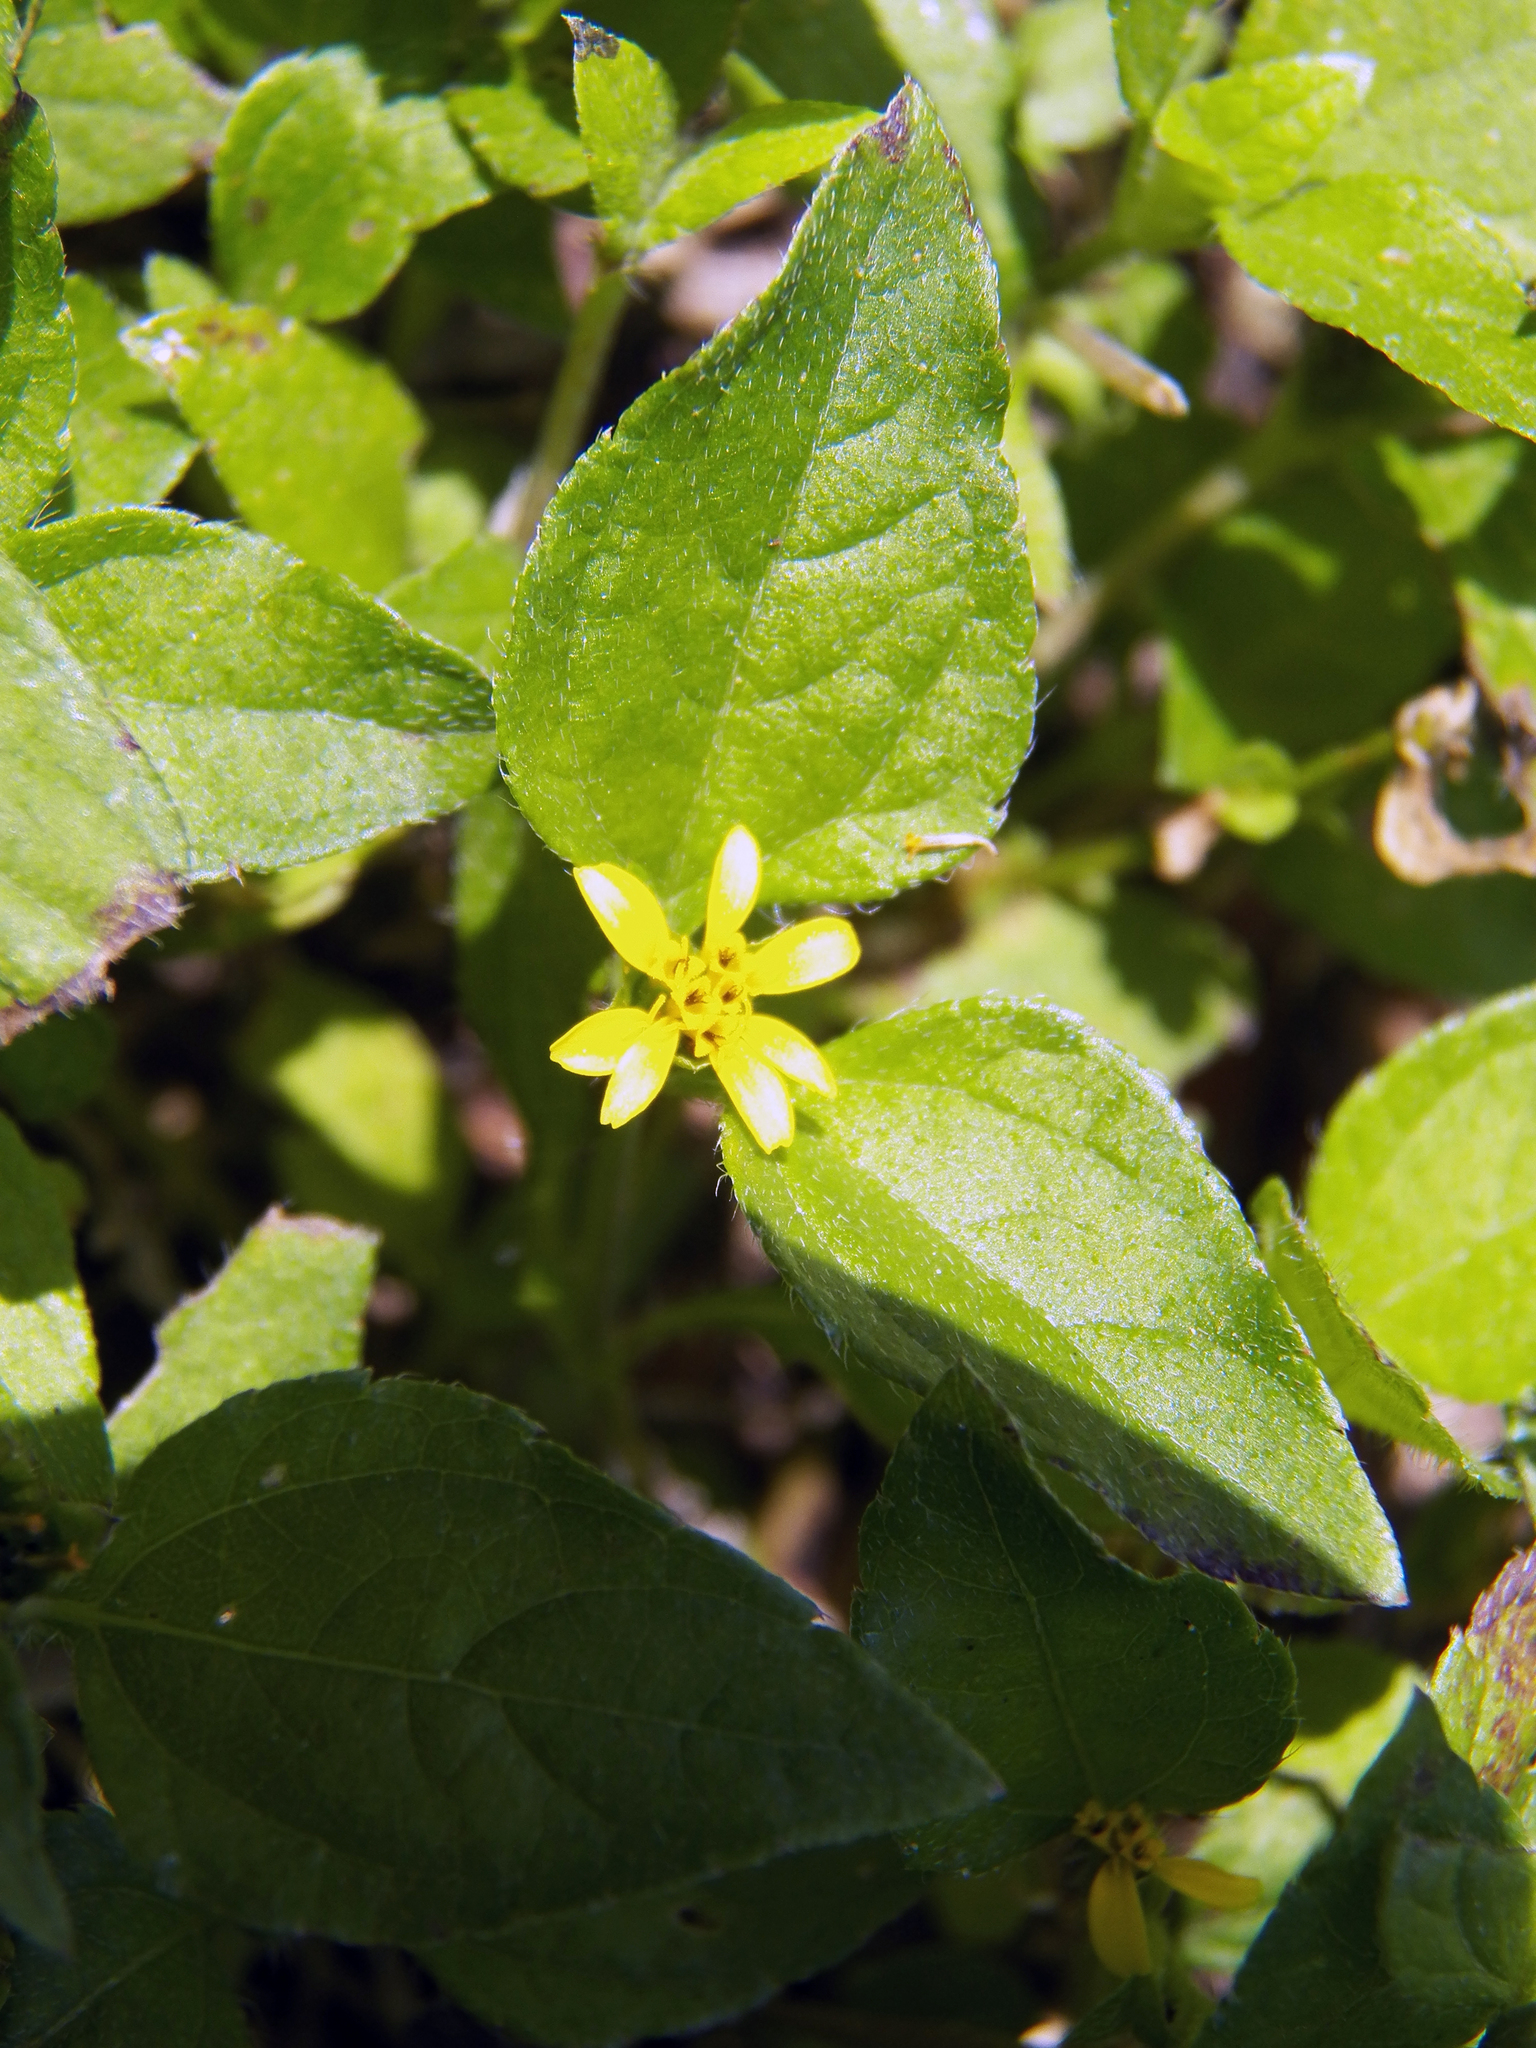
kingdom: Plantae
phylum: Tracheophyta
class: Magnoliopsida
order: Asterales
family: Asteraceae
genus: Calyptocarpus
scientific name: Calyptocarpus vialis
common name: Straggler daisy
